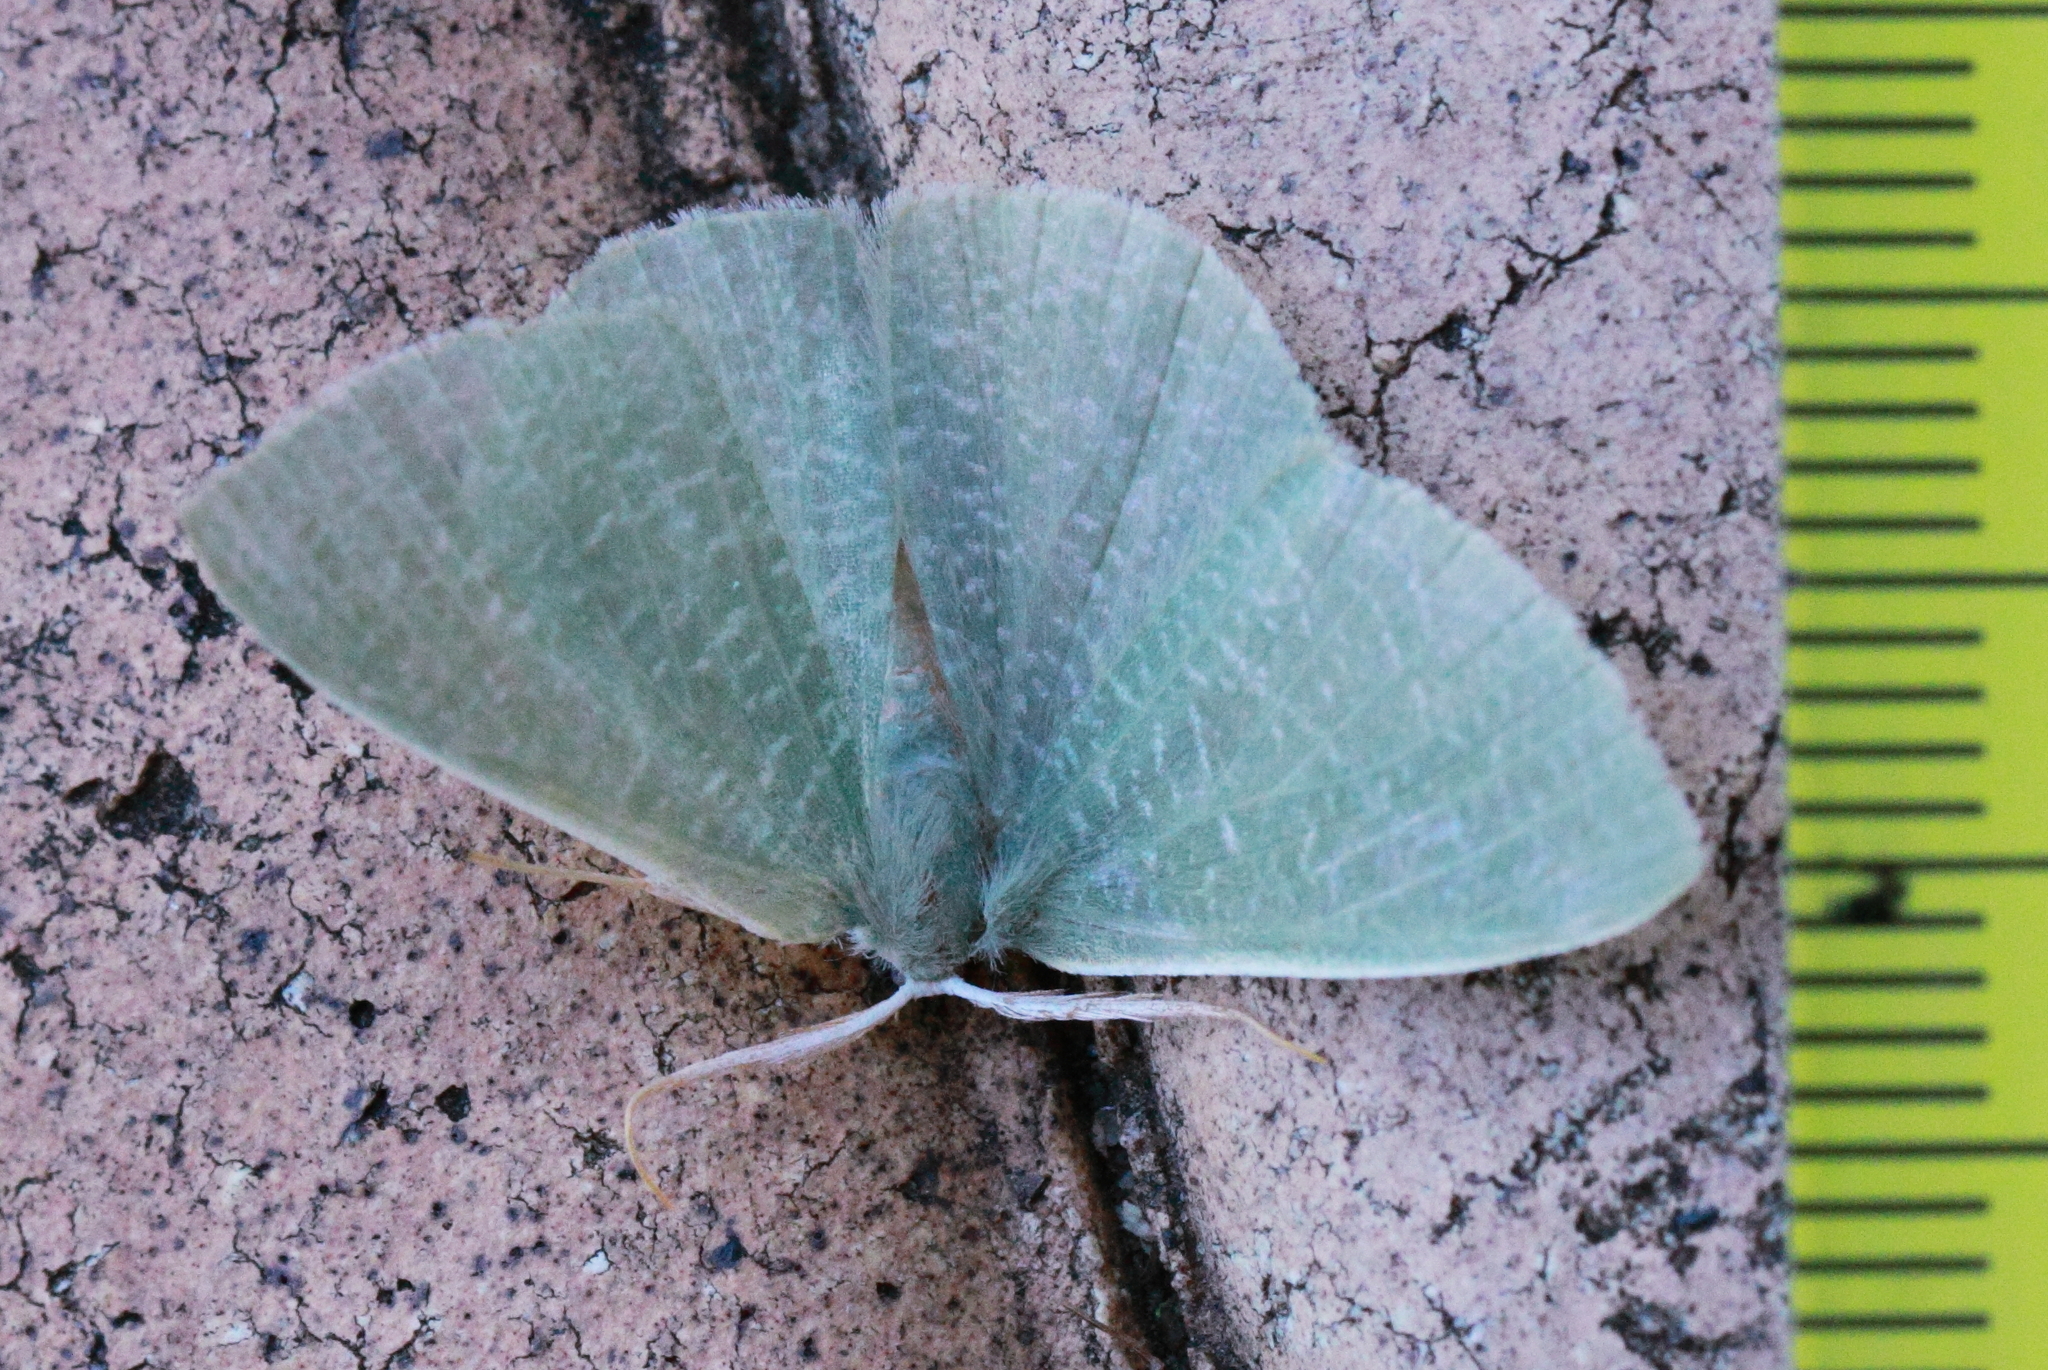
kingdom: Animalia
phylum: Arthropoda
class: Insecta
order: Lepidoptera
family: Geometridae
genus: Prasinocyma
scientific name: Prasinocyma albicosta
